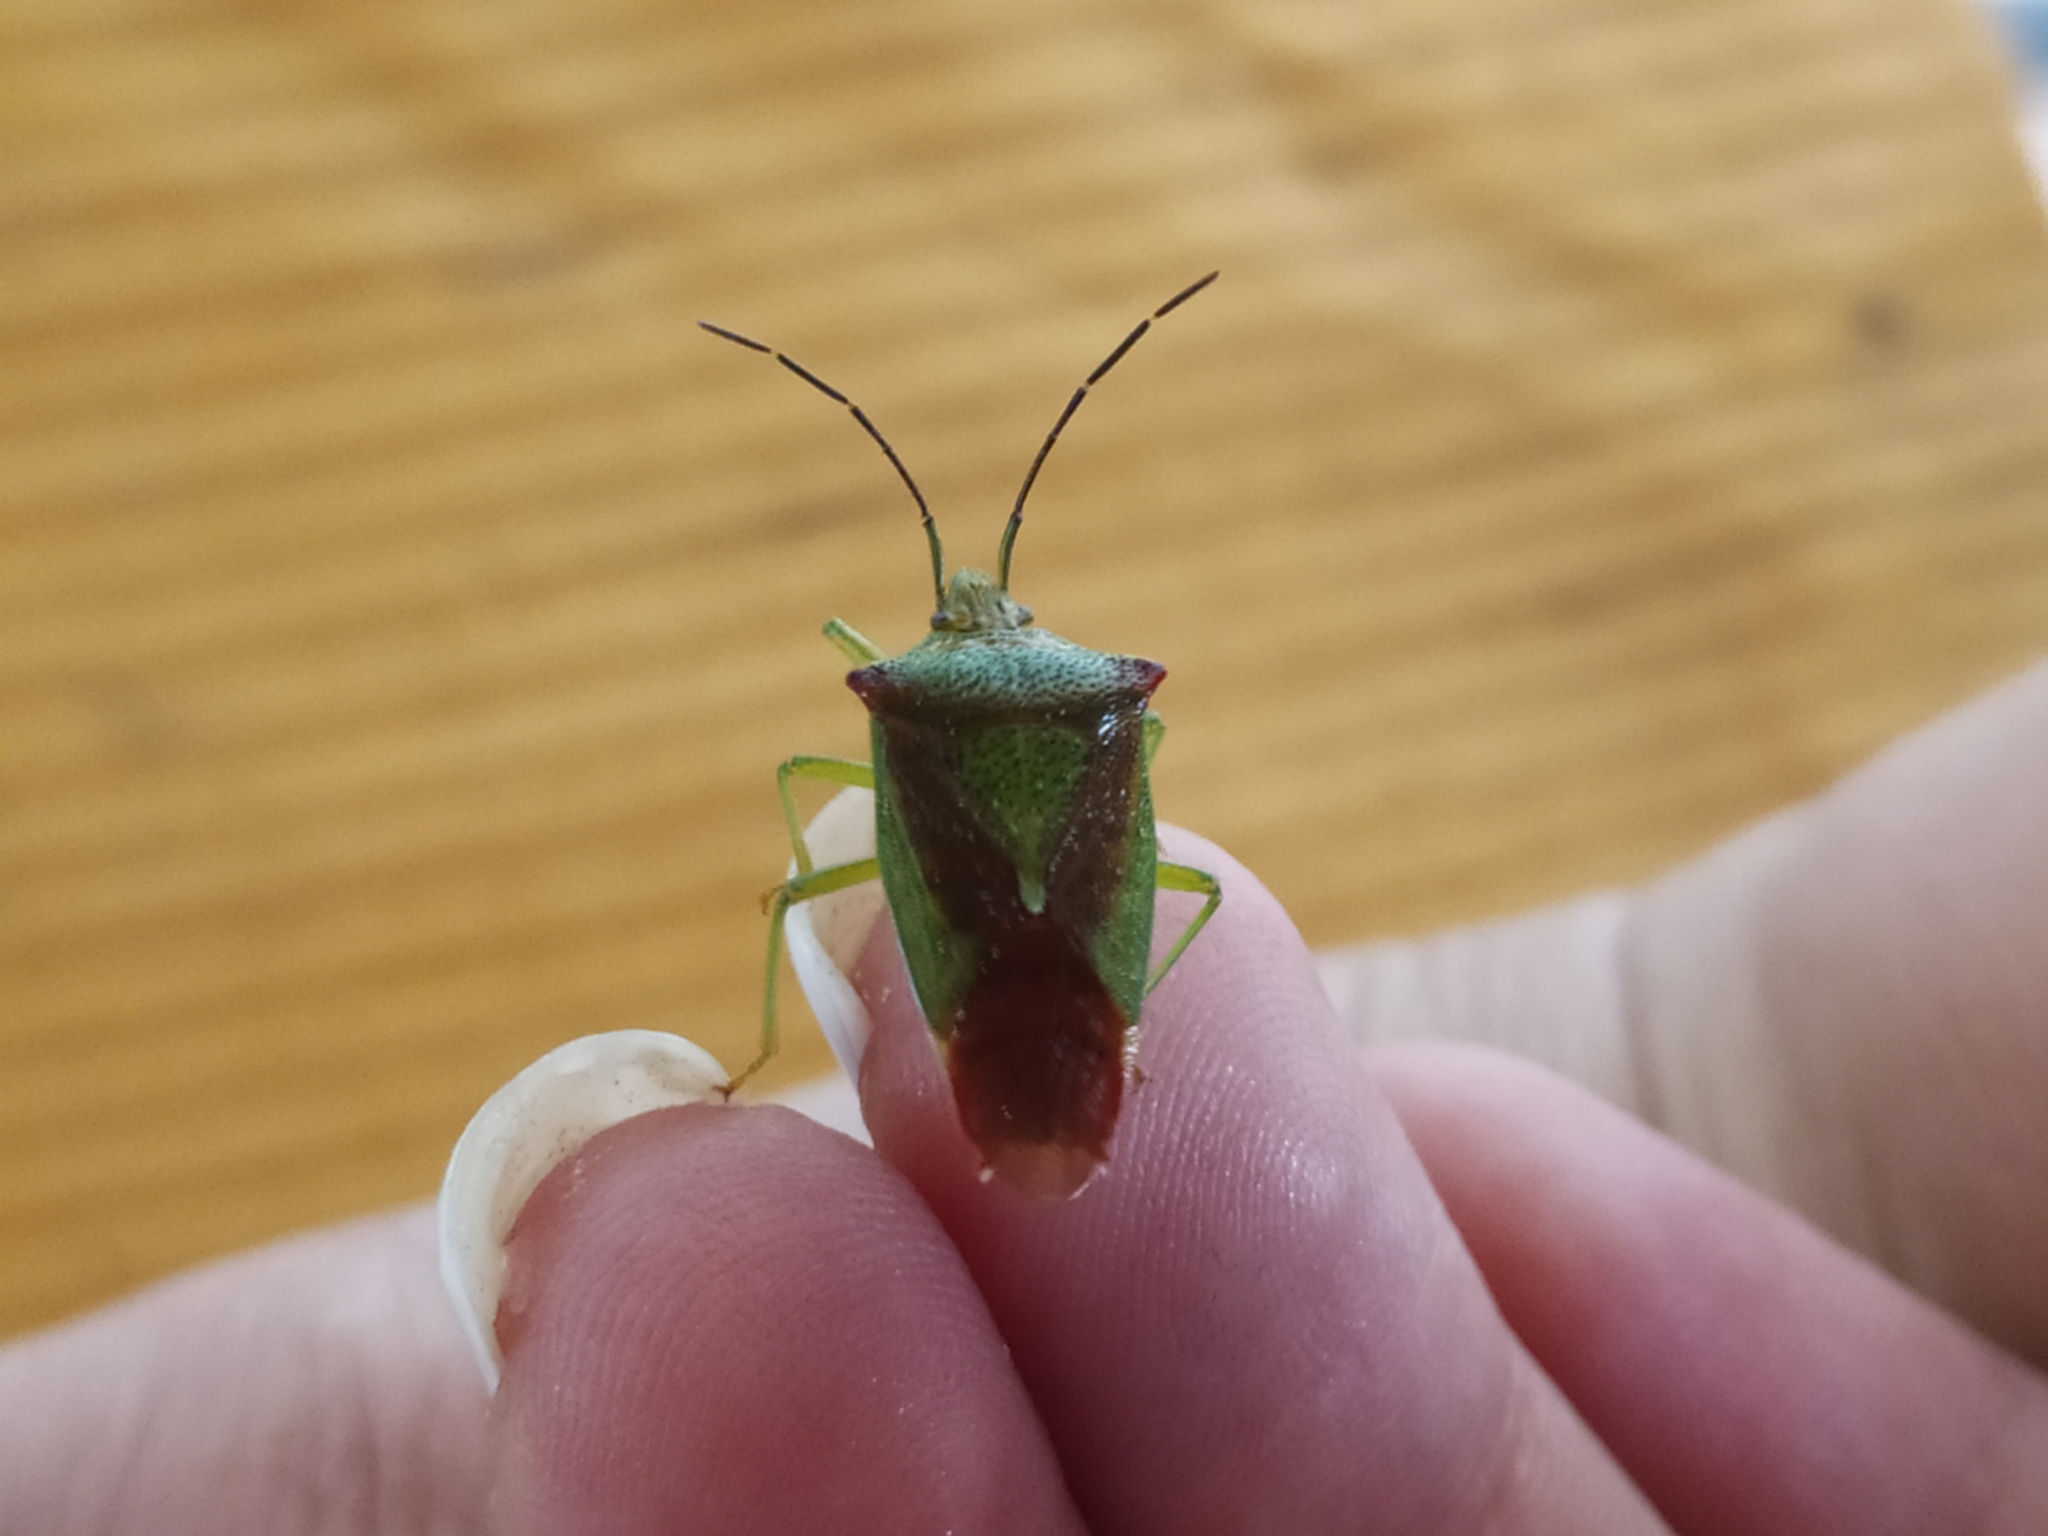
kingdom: Animalia
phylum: Arthropoda
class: Insecta
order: Hemiptera
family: Acanthosomatidae
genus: Acanthosoma
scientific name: Acanthosoma haemorrhoidale
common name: Hawthorn shieldbug
